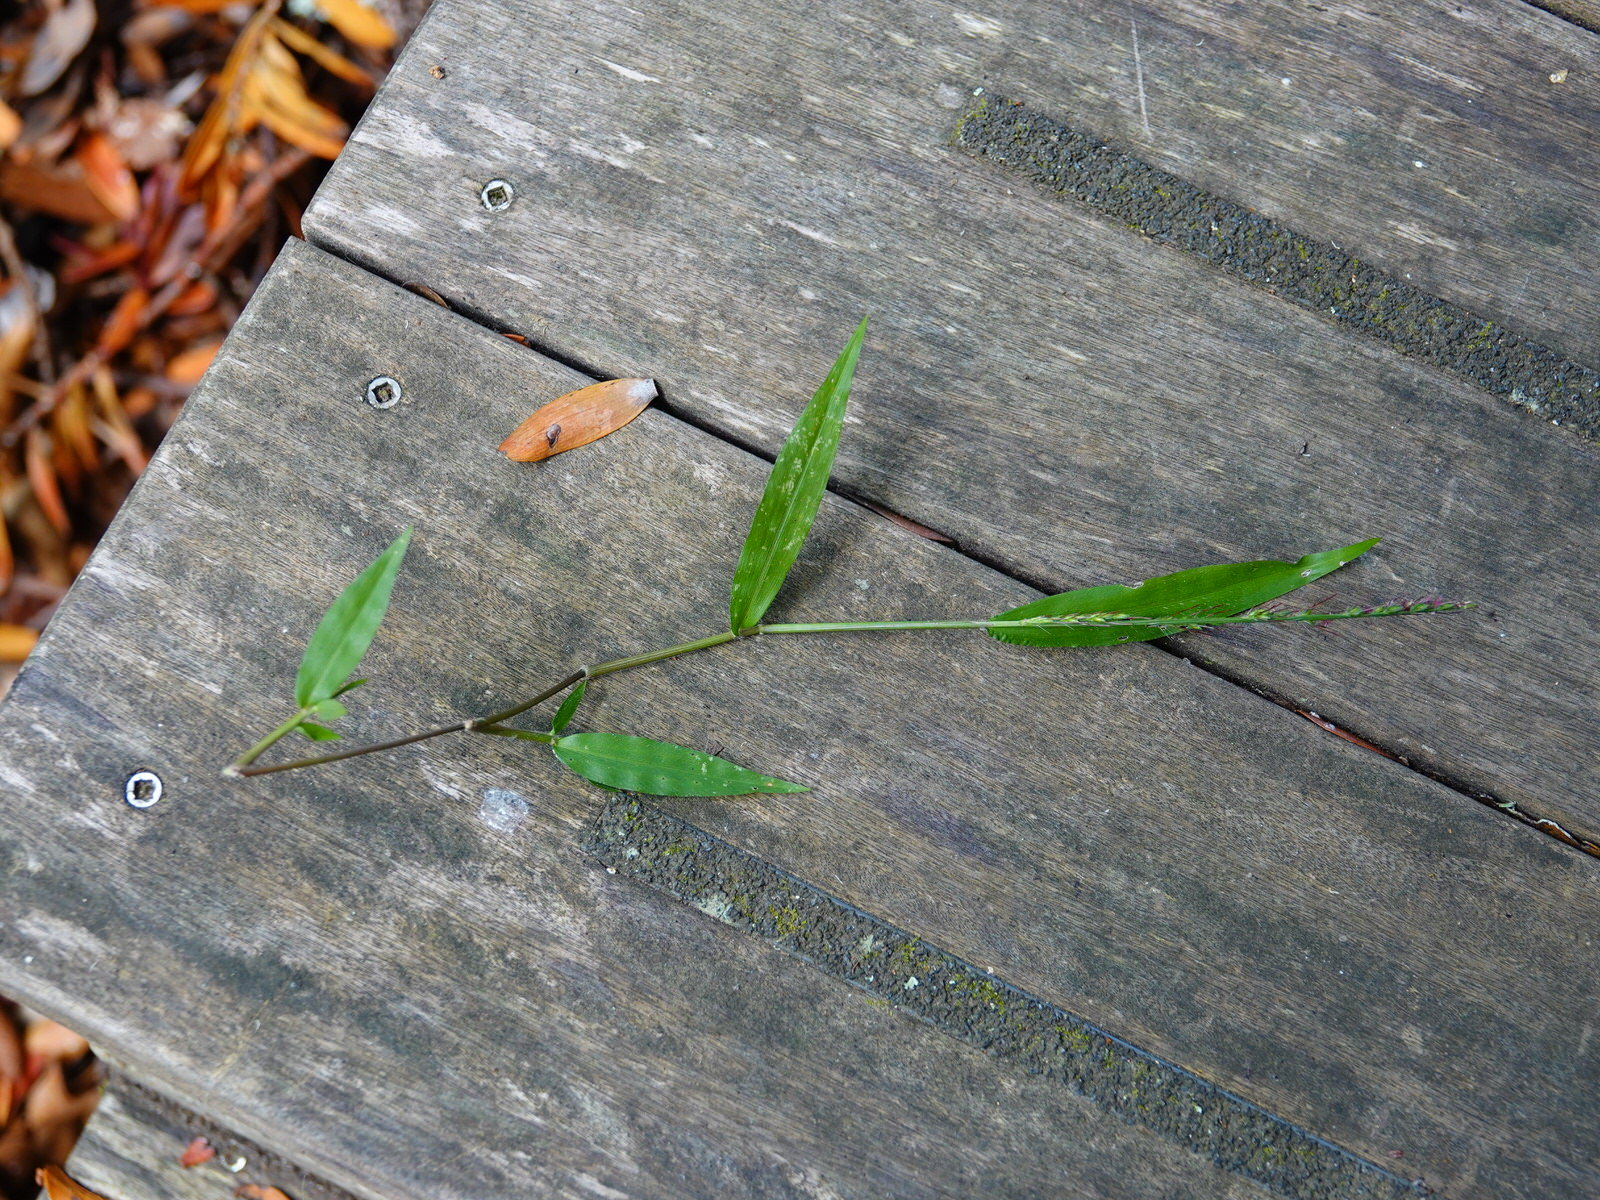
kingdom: Plantae
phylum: Tracheophyta
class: Liliopsida
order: Poales
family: Poaceae
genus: Oplismenus
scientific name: Oplismenus hirtellus
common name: Basketgrass
